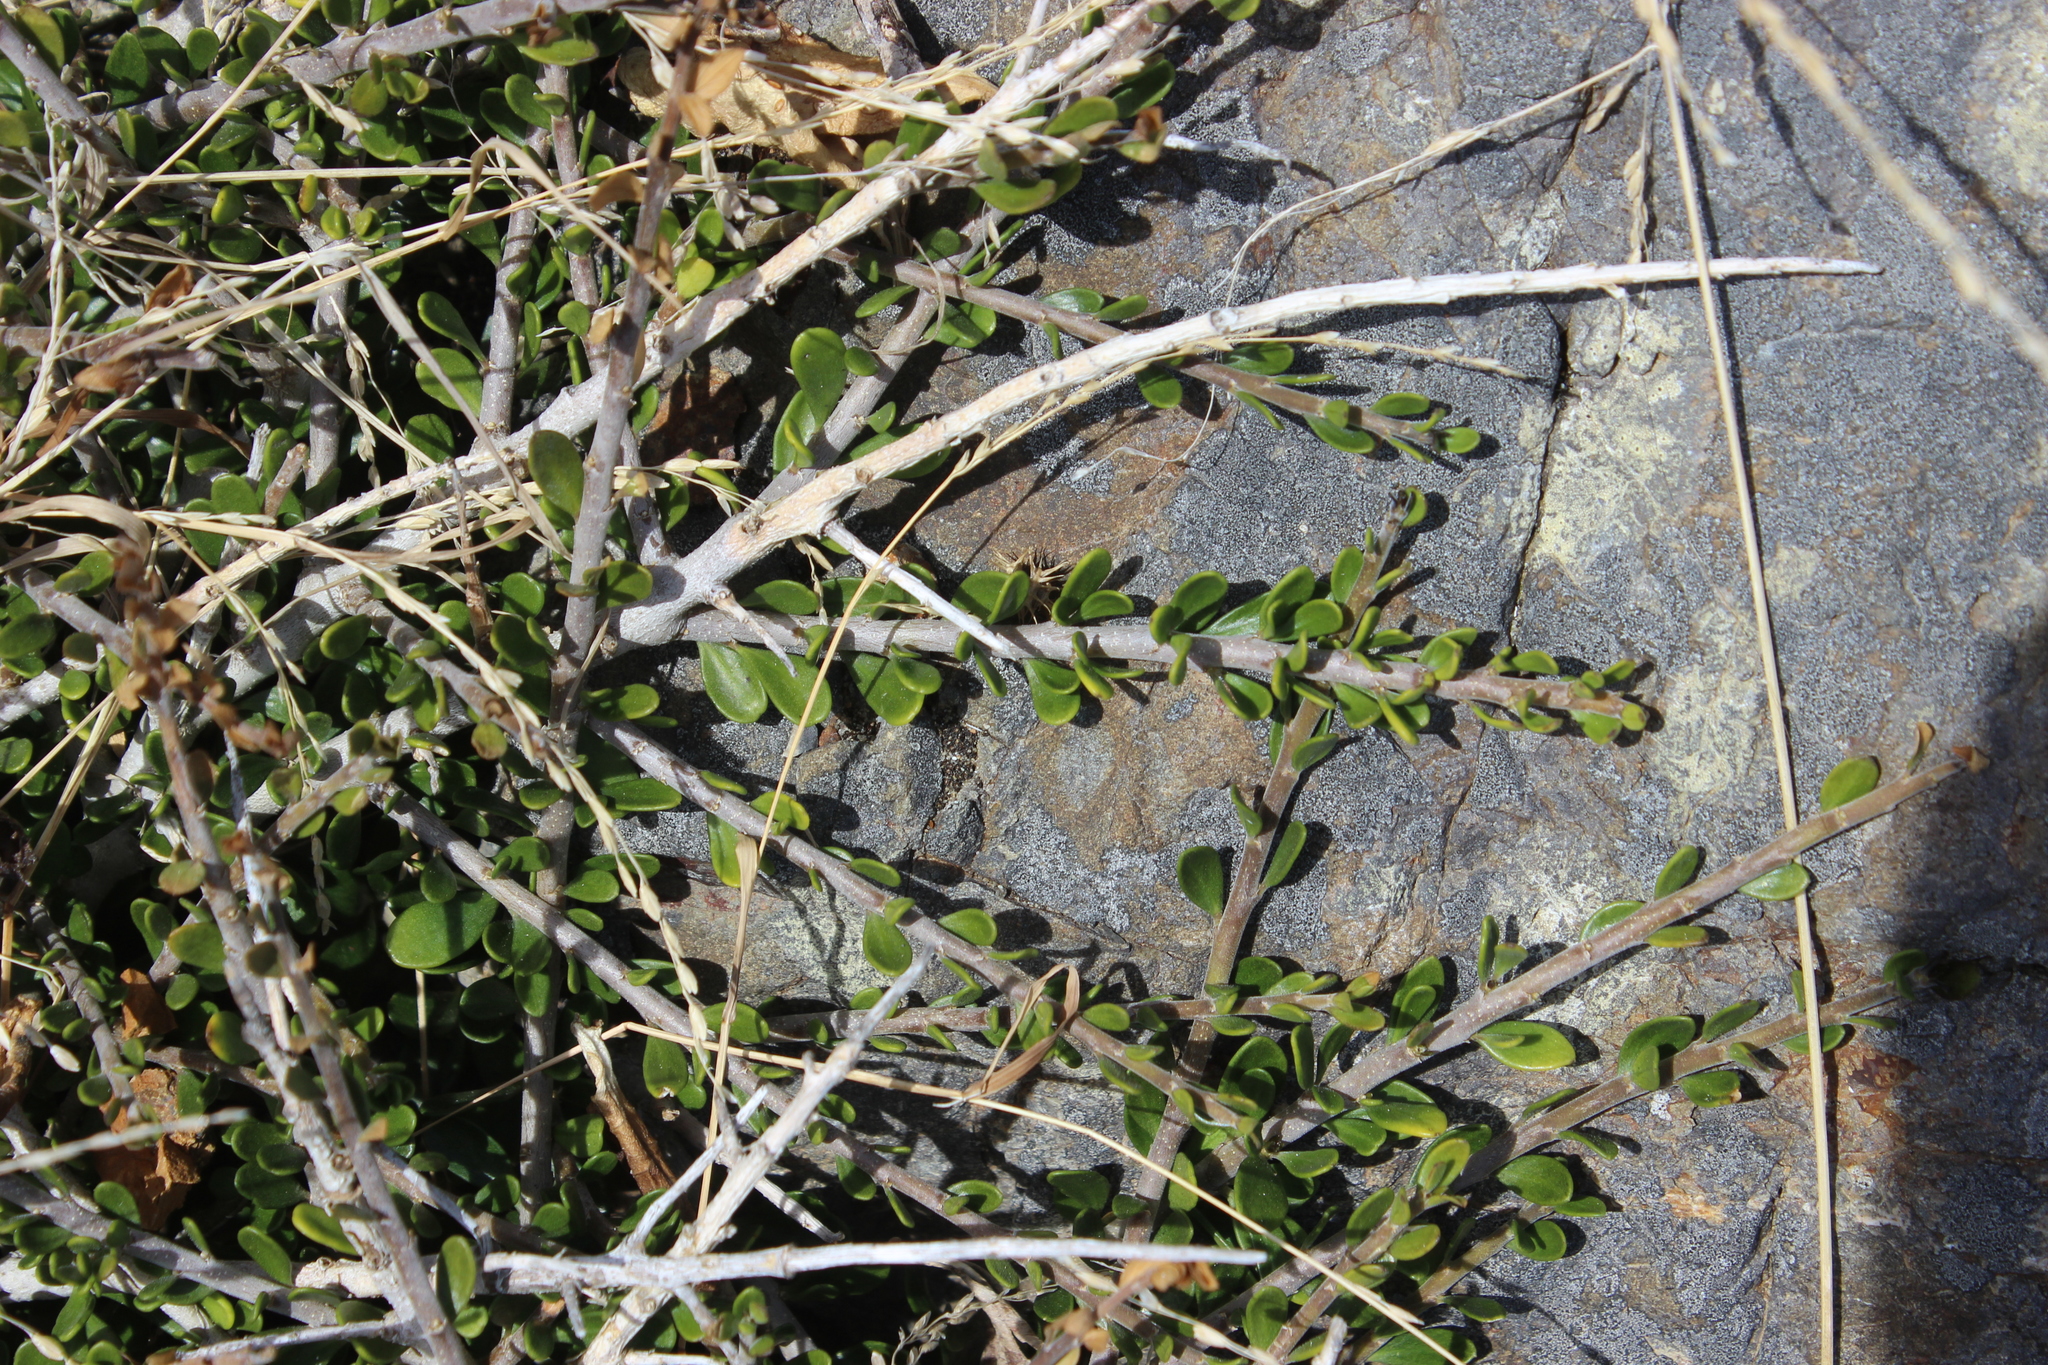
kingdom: Plantae
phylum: Tracheophyta
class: Magnoliopsida
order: Malpighiales
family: Violaceae
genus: Melicytus
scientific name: Melicytus crassifolius
